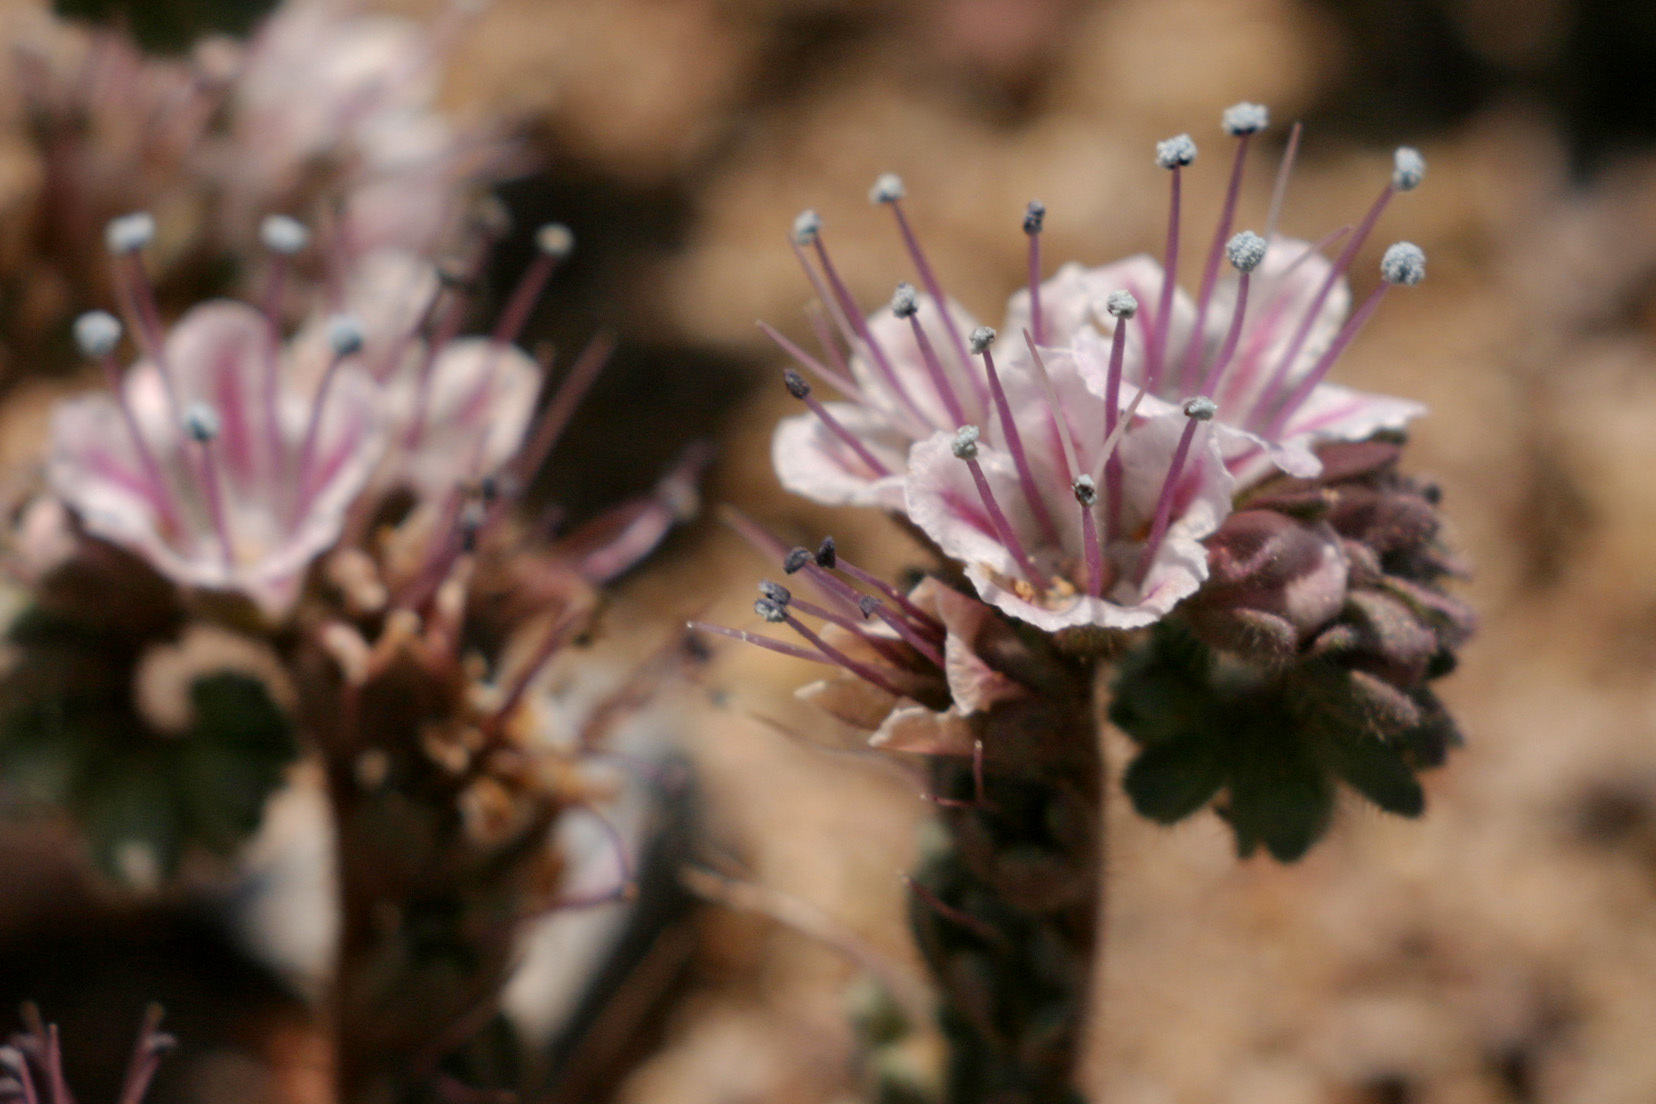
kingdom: Plantae
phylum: Tracheophyta
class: Magnoliopsida
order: Boraginales
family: Hydrophyllaceae
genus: Phacelia
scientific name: Phacelia arizonica
